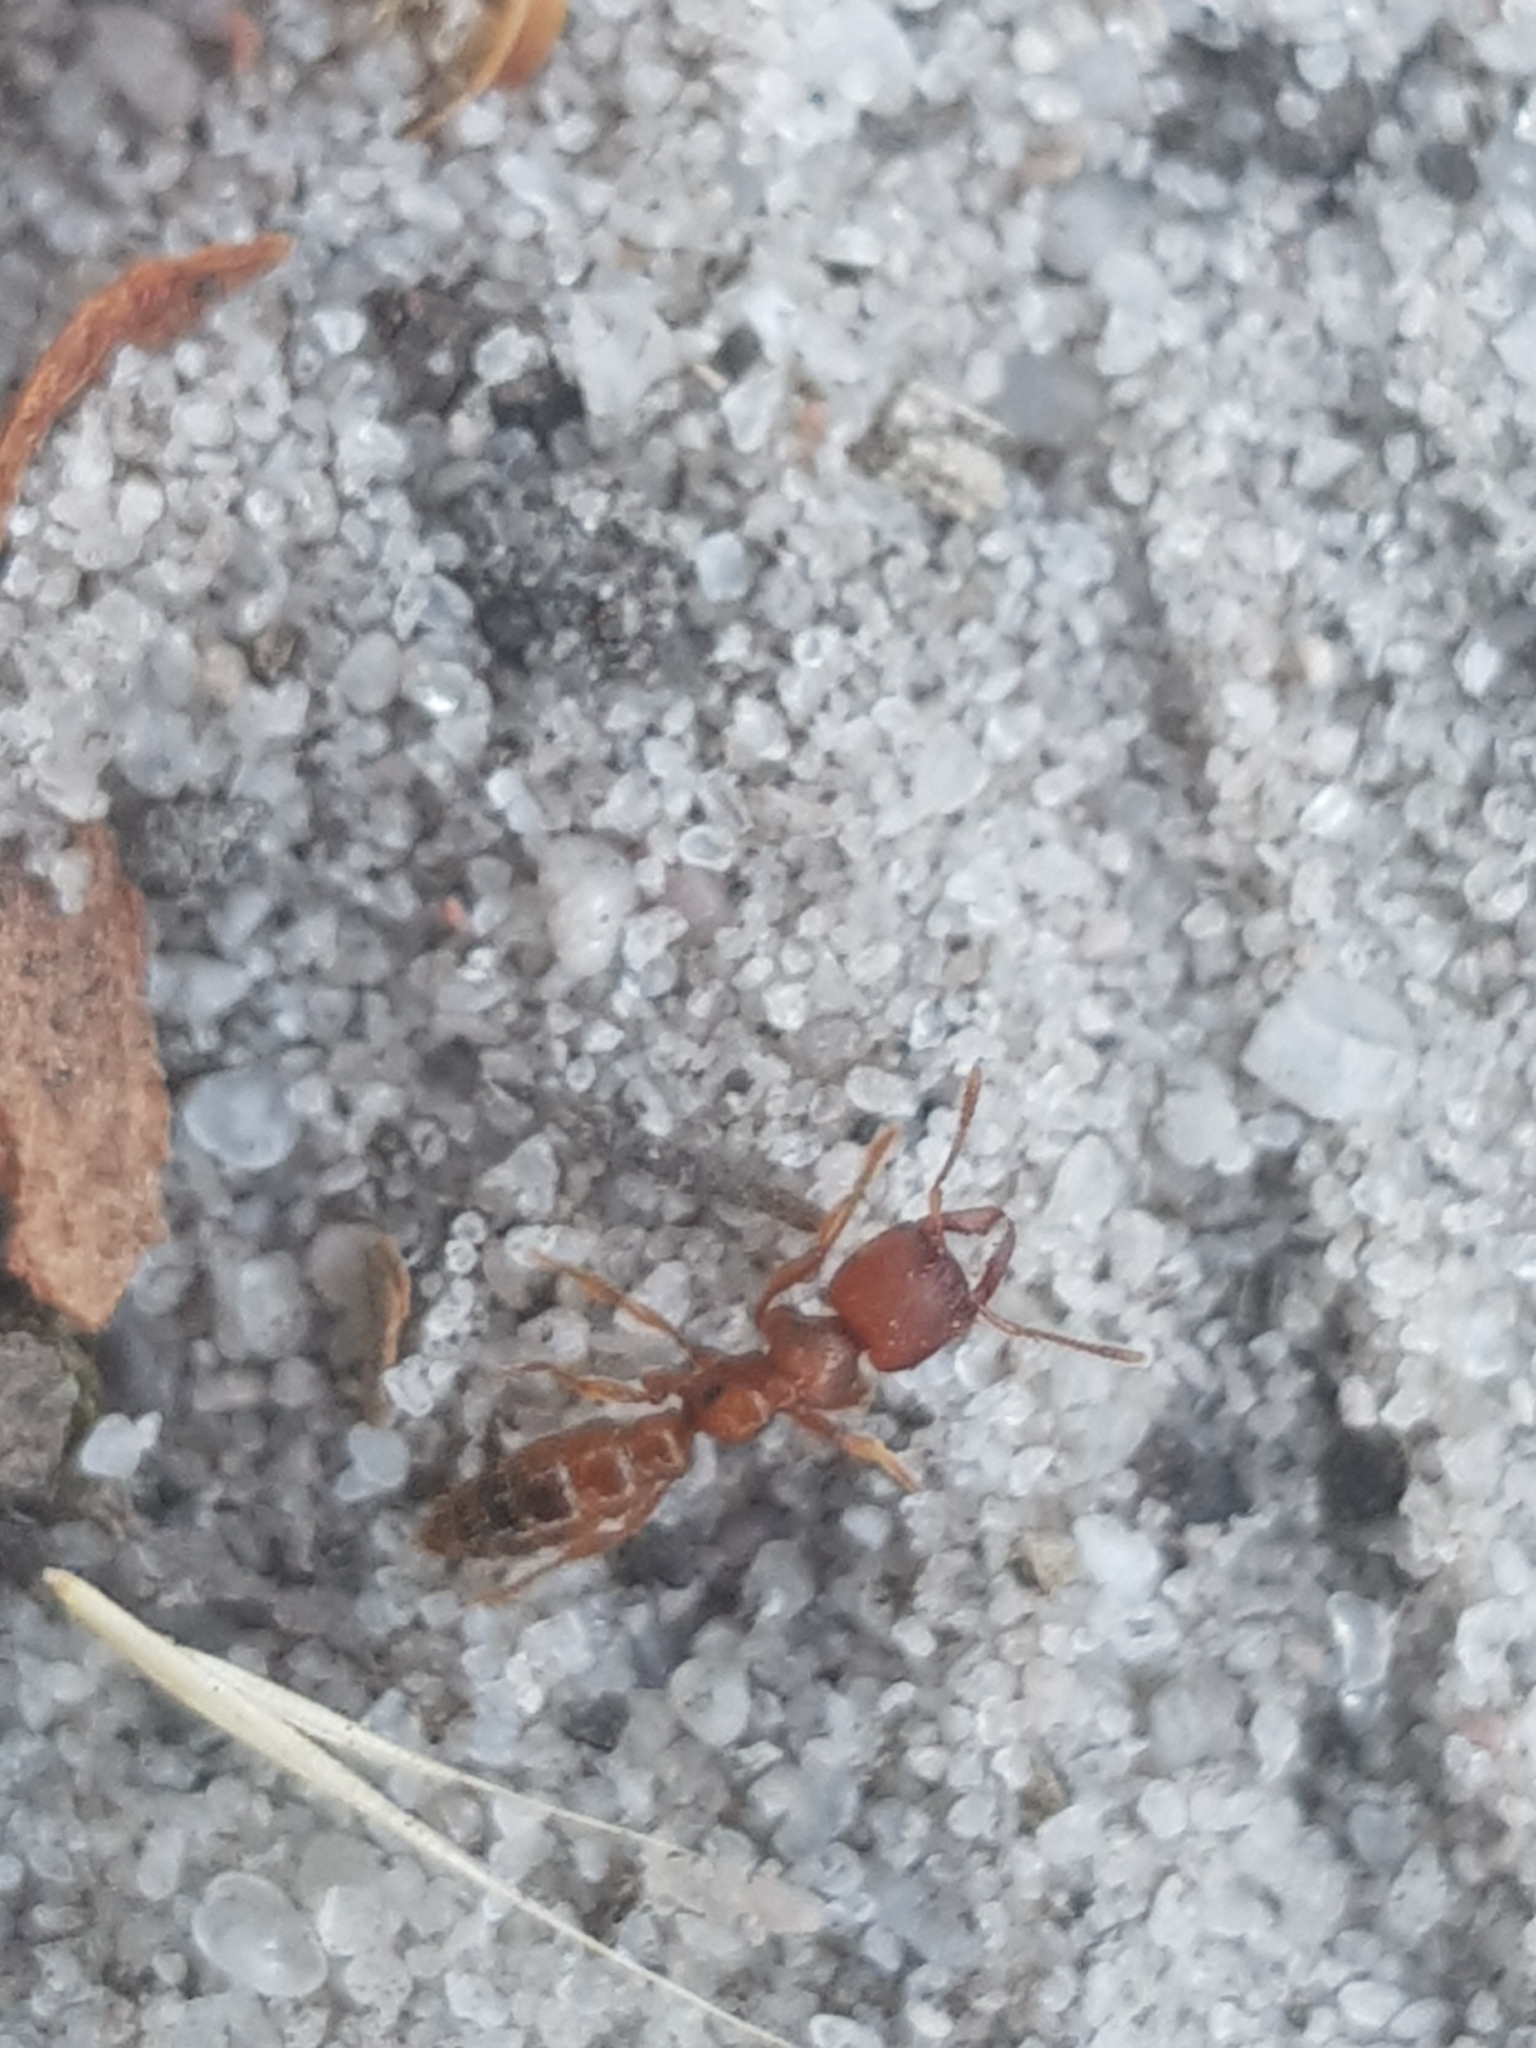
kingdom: Animalia
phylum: Arthropoda
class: Insecta
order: Hymenoptera
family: Formicidae
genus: Amblyopone
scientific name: Amblyopone ferruginea
